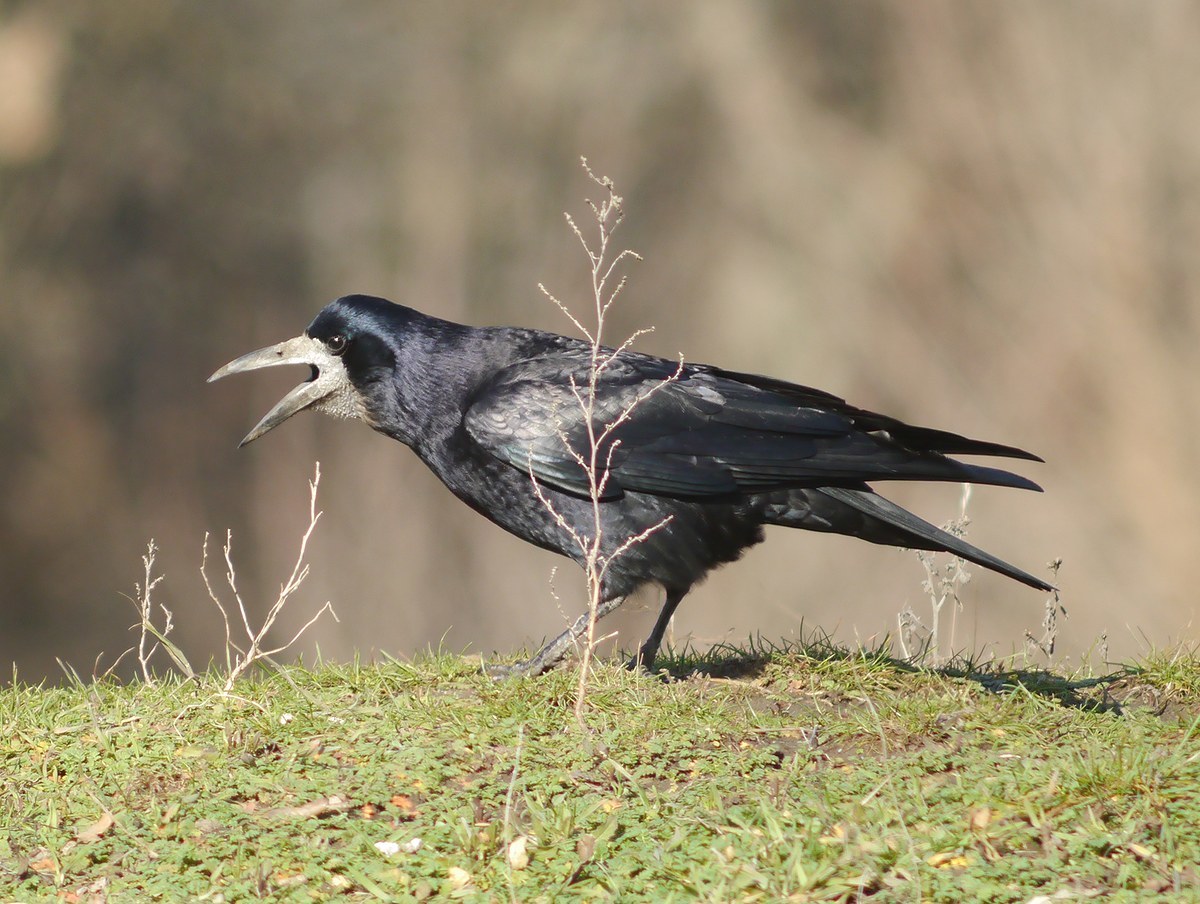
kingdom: Animalia
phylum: Chordata
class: Aves
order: Passeriformes
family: Corvidae
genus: Corvus
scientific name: Corvus frugilegus
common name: Rook
